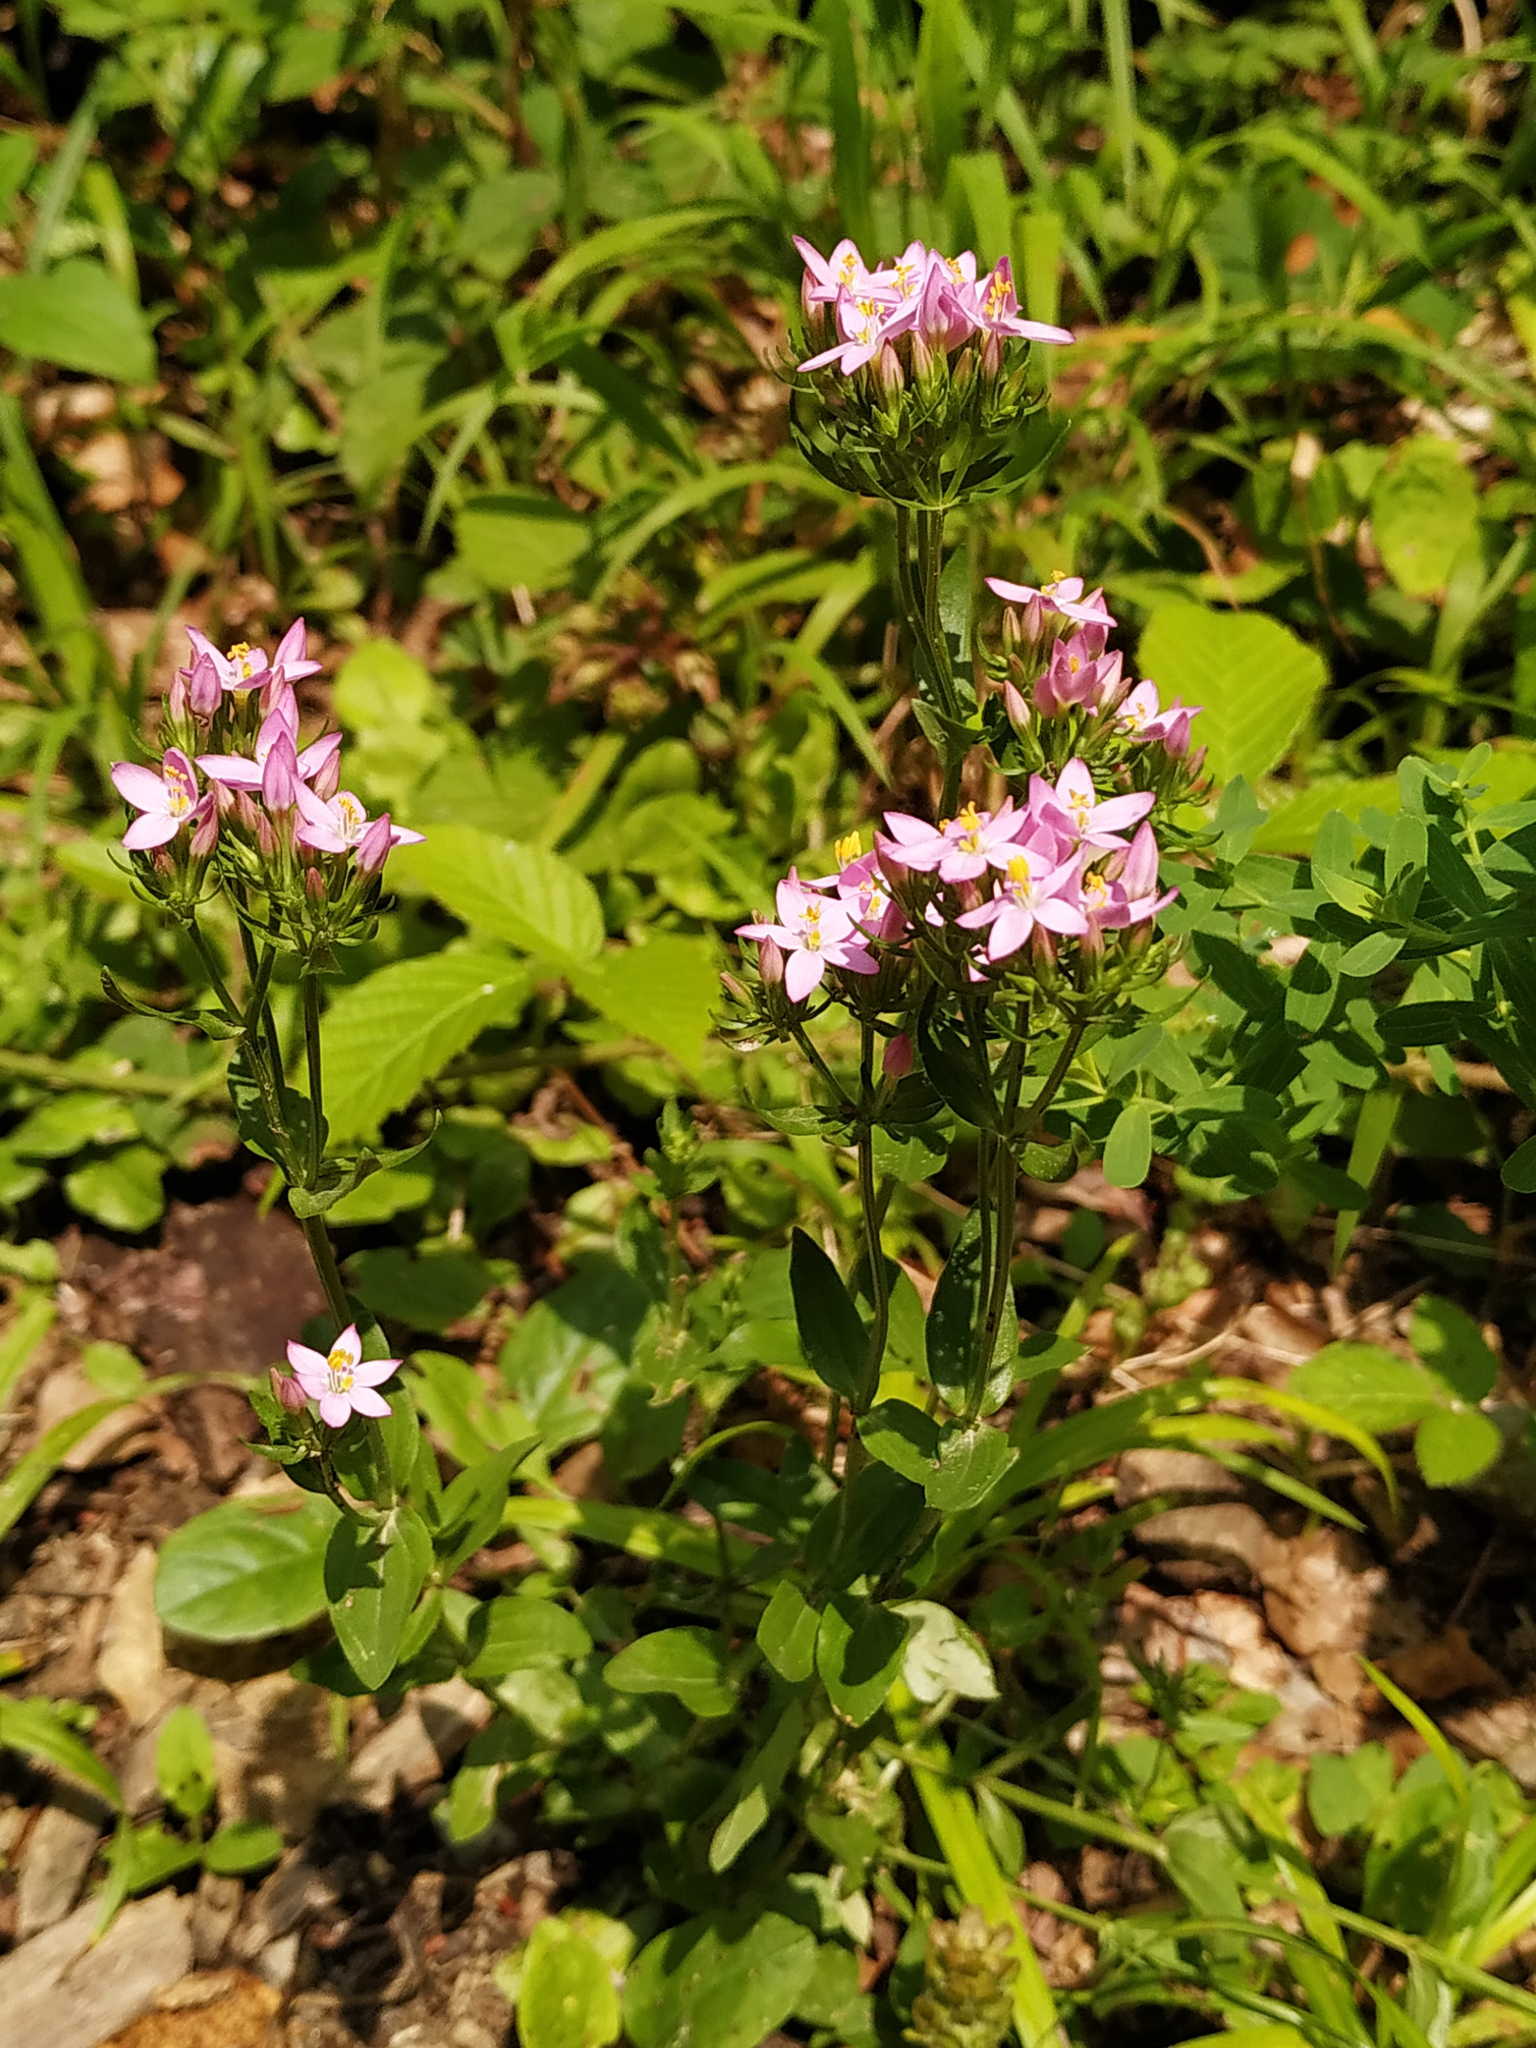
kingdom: Plantae
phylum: Tracheophyta
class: Magnoliopsida
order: Gentianales
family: Gentianaceae
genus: Centaurium
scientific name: Centaurium erythraea
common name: Common centaury
